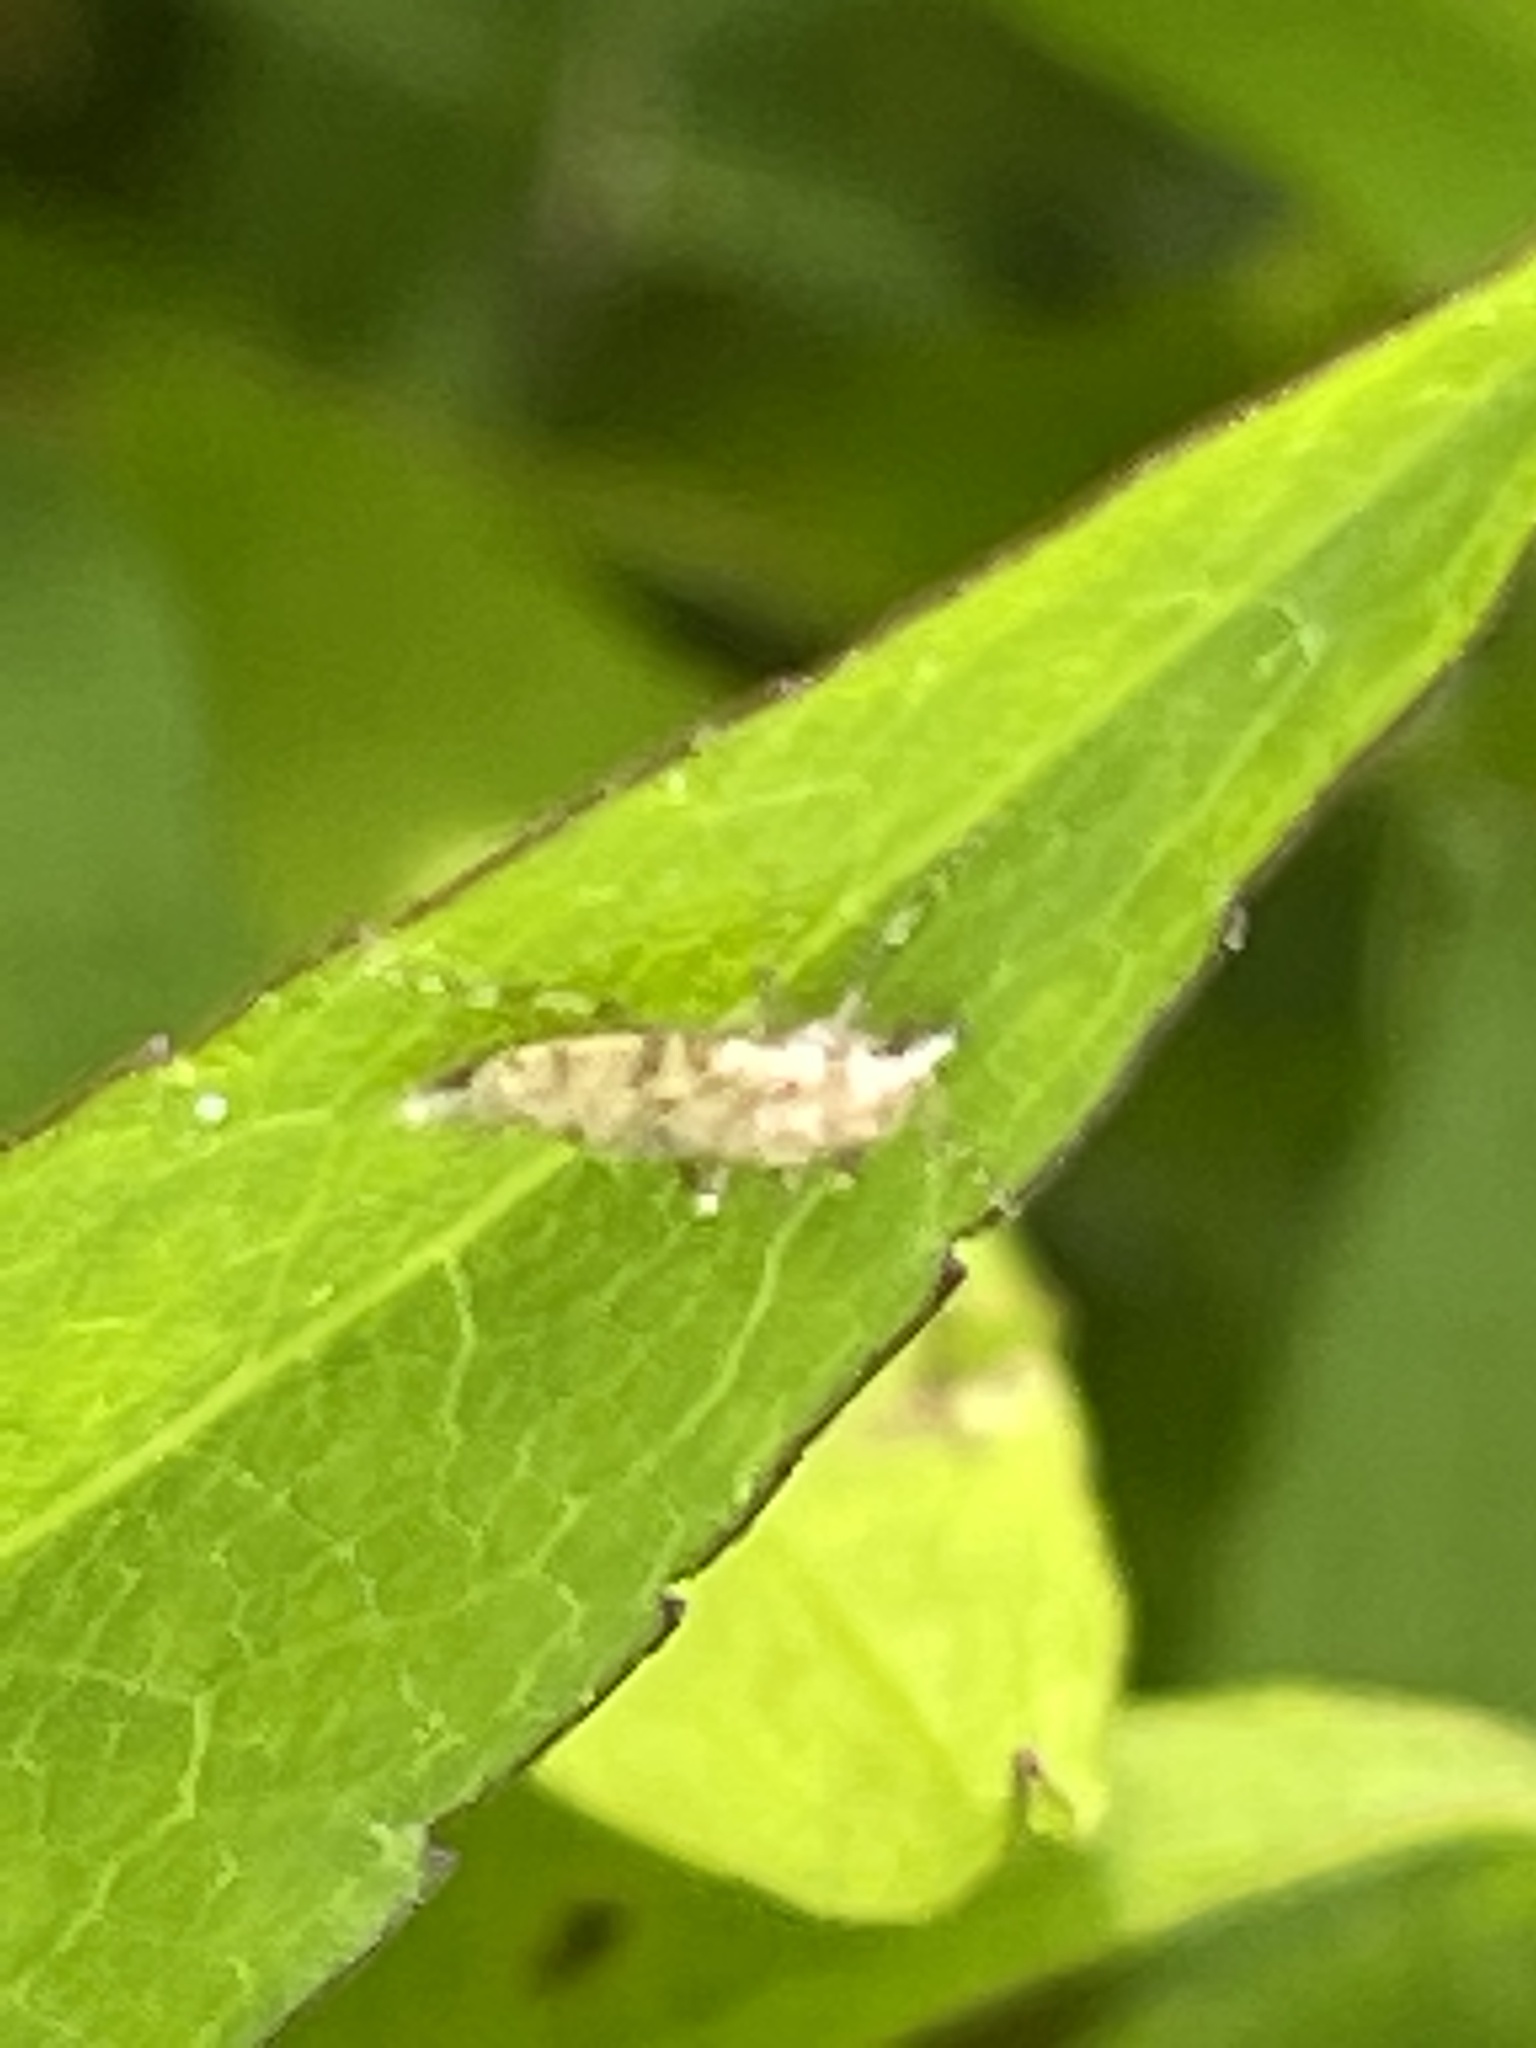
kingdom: Animalia
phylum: Arthropoda
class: Insecta
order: Diptera
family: Chaoboridae
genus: Chaoborus
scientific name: Chaoborus punctipennis
